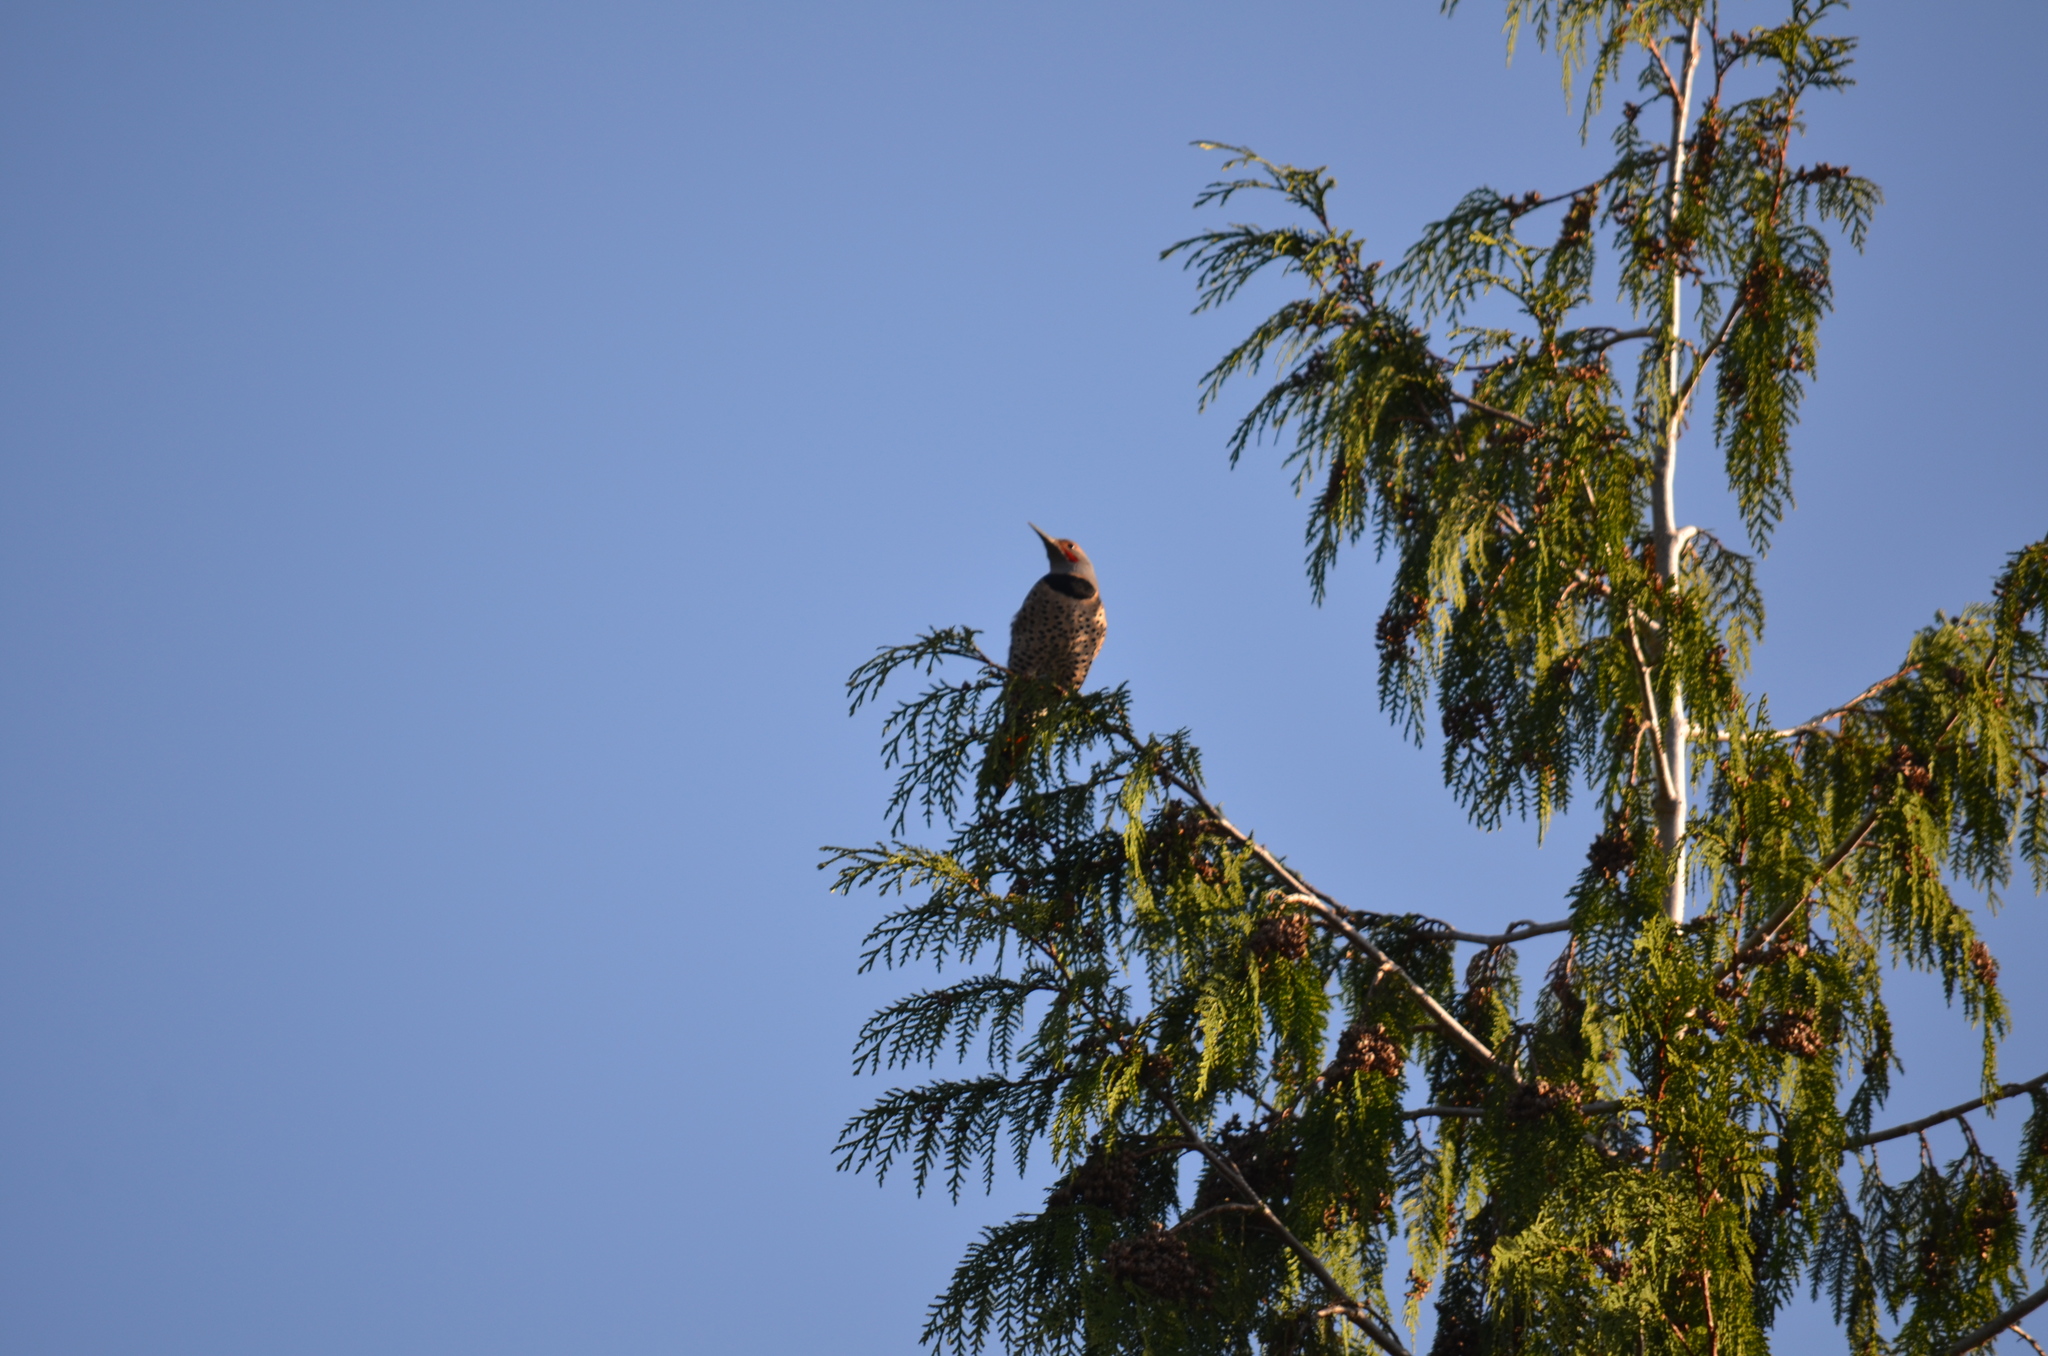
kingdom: Animalia
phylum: Chordata
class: Aves
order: Piciformes
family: Picidae
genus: Colaptes
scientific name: Colaptes auratus
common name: Northern flicker
